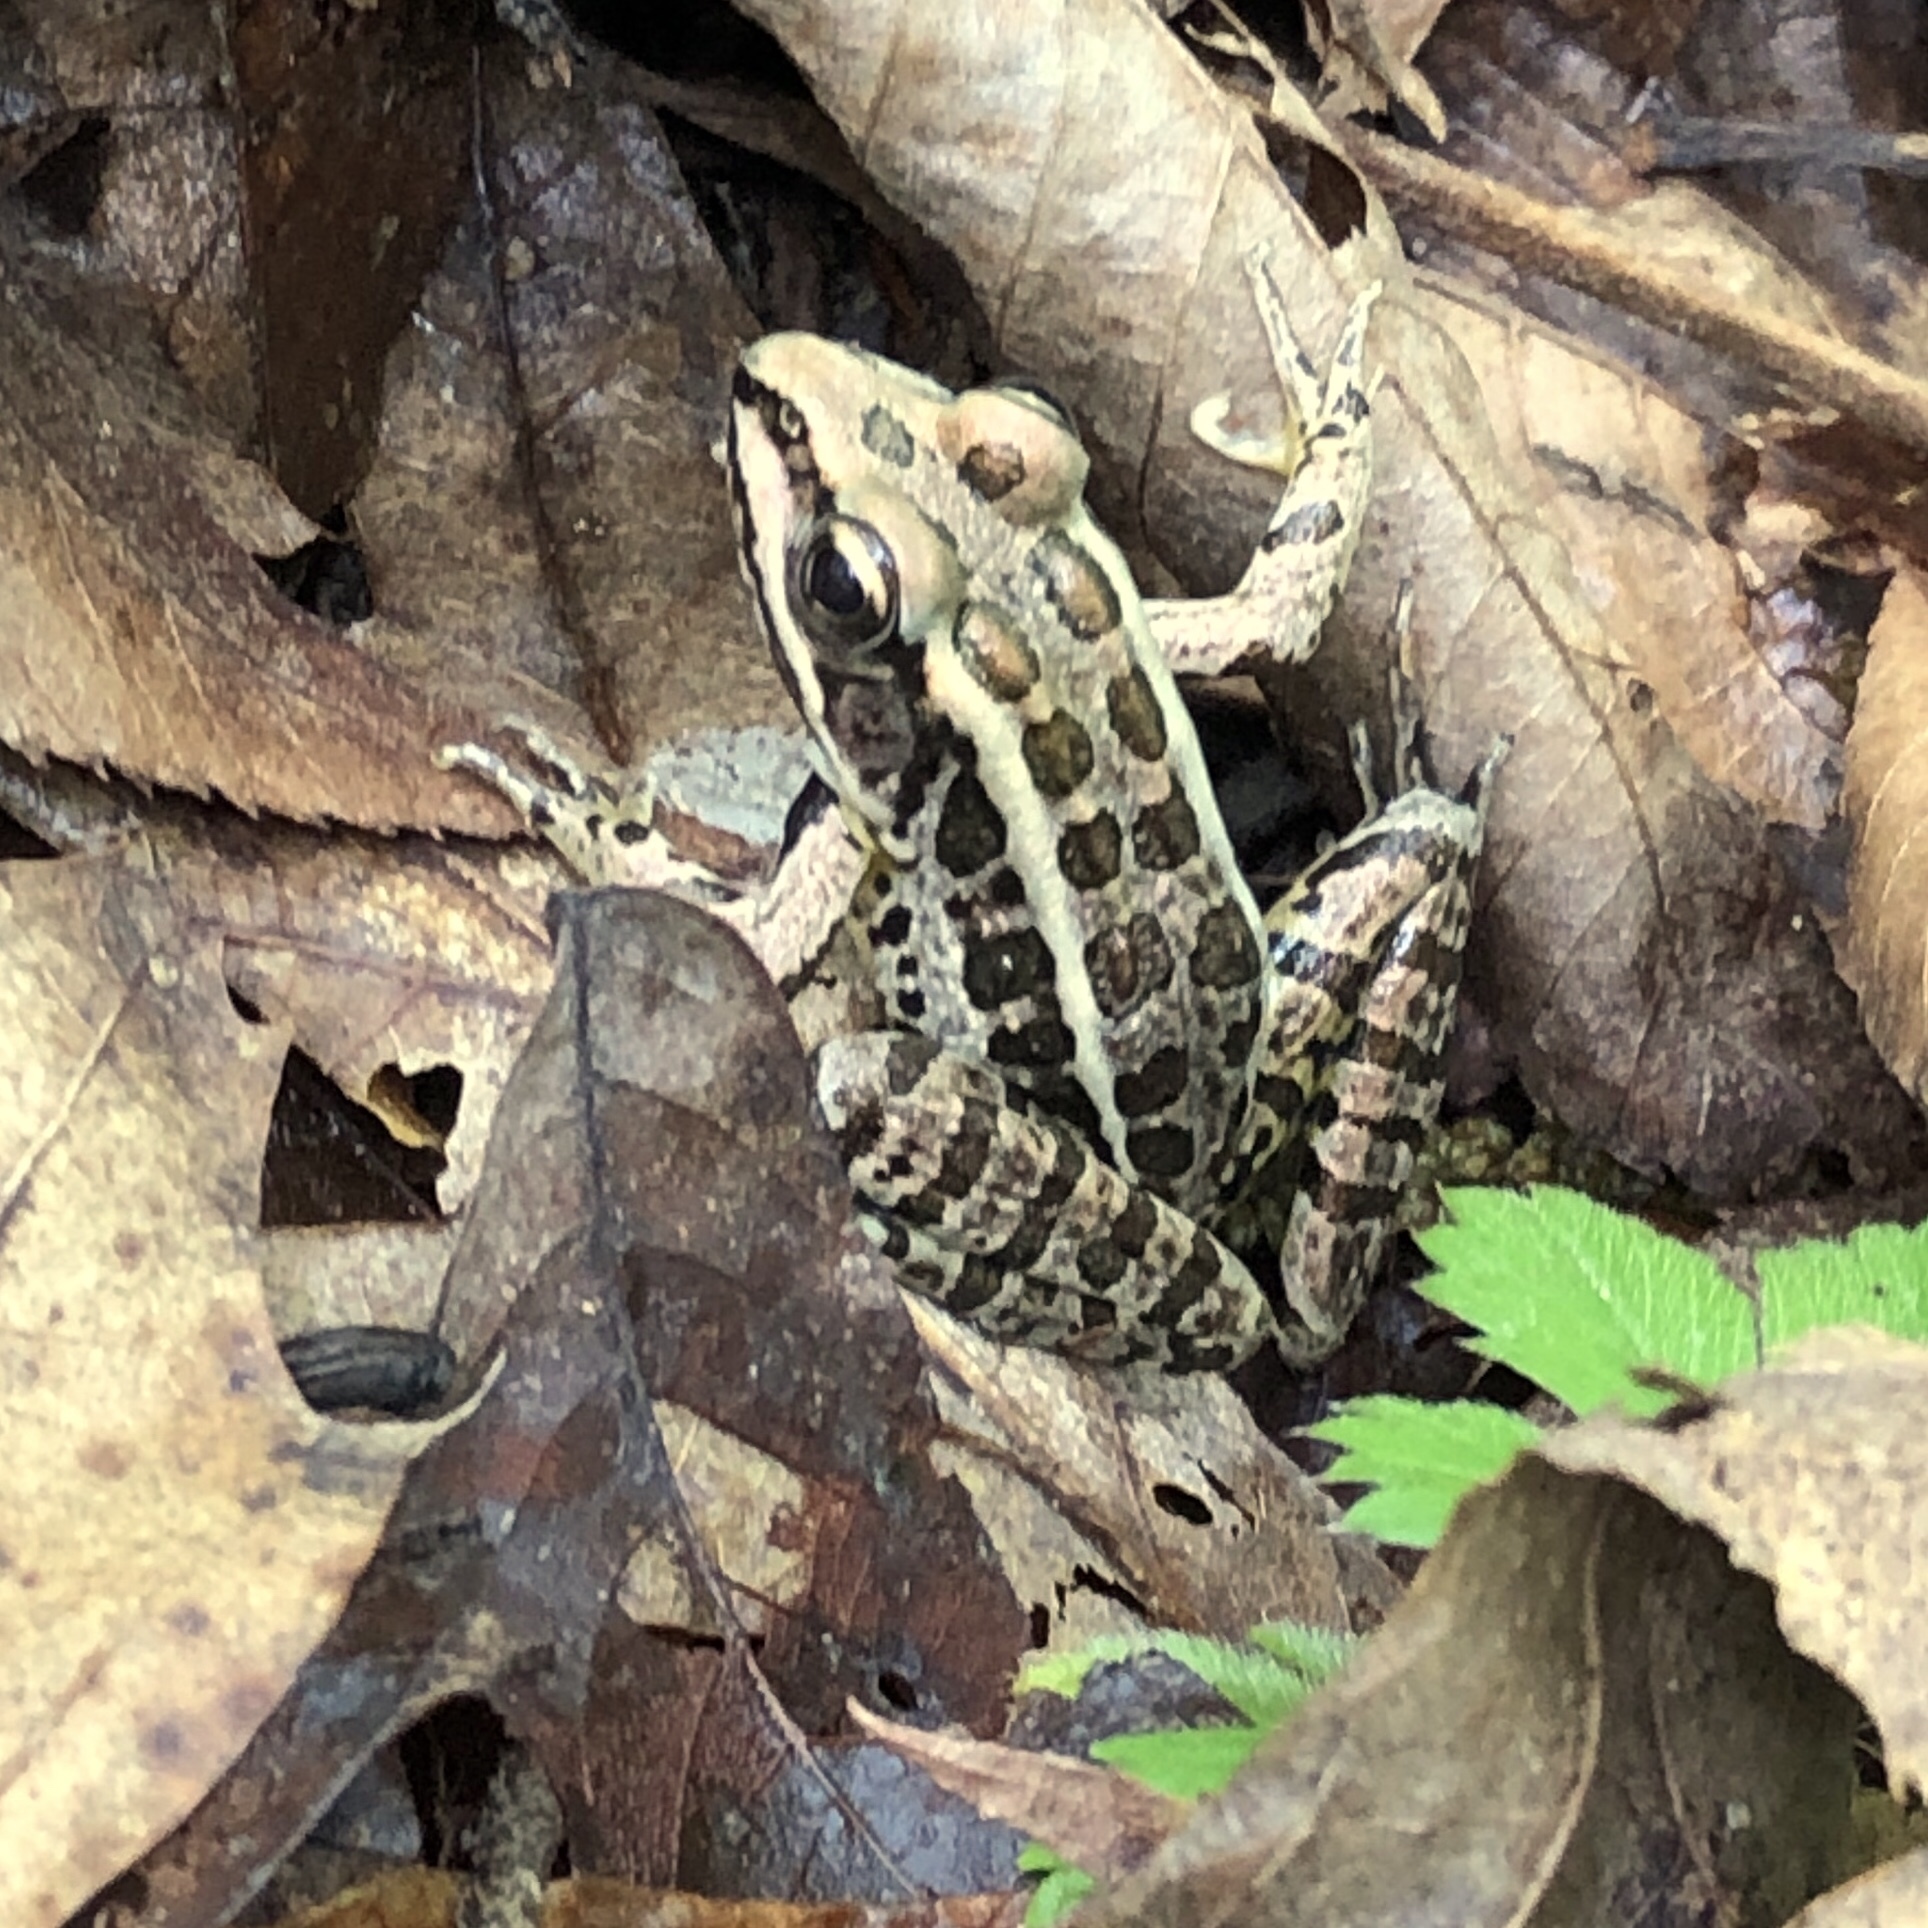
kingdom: Animalia
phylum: Chordata
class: Amphibia
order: Anura
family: Ranidae
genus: Lithobates
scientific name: Lithobates palustris
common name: Pickerel frog
